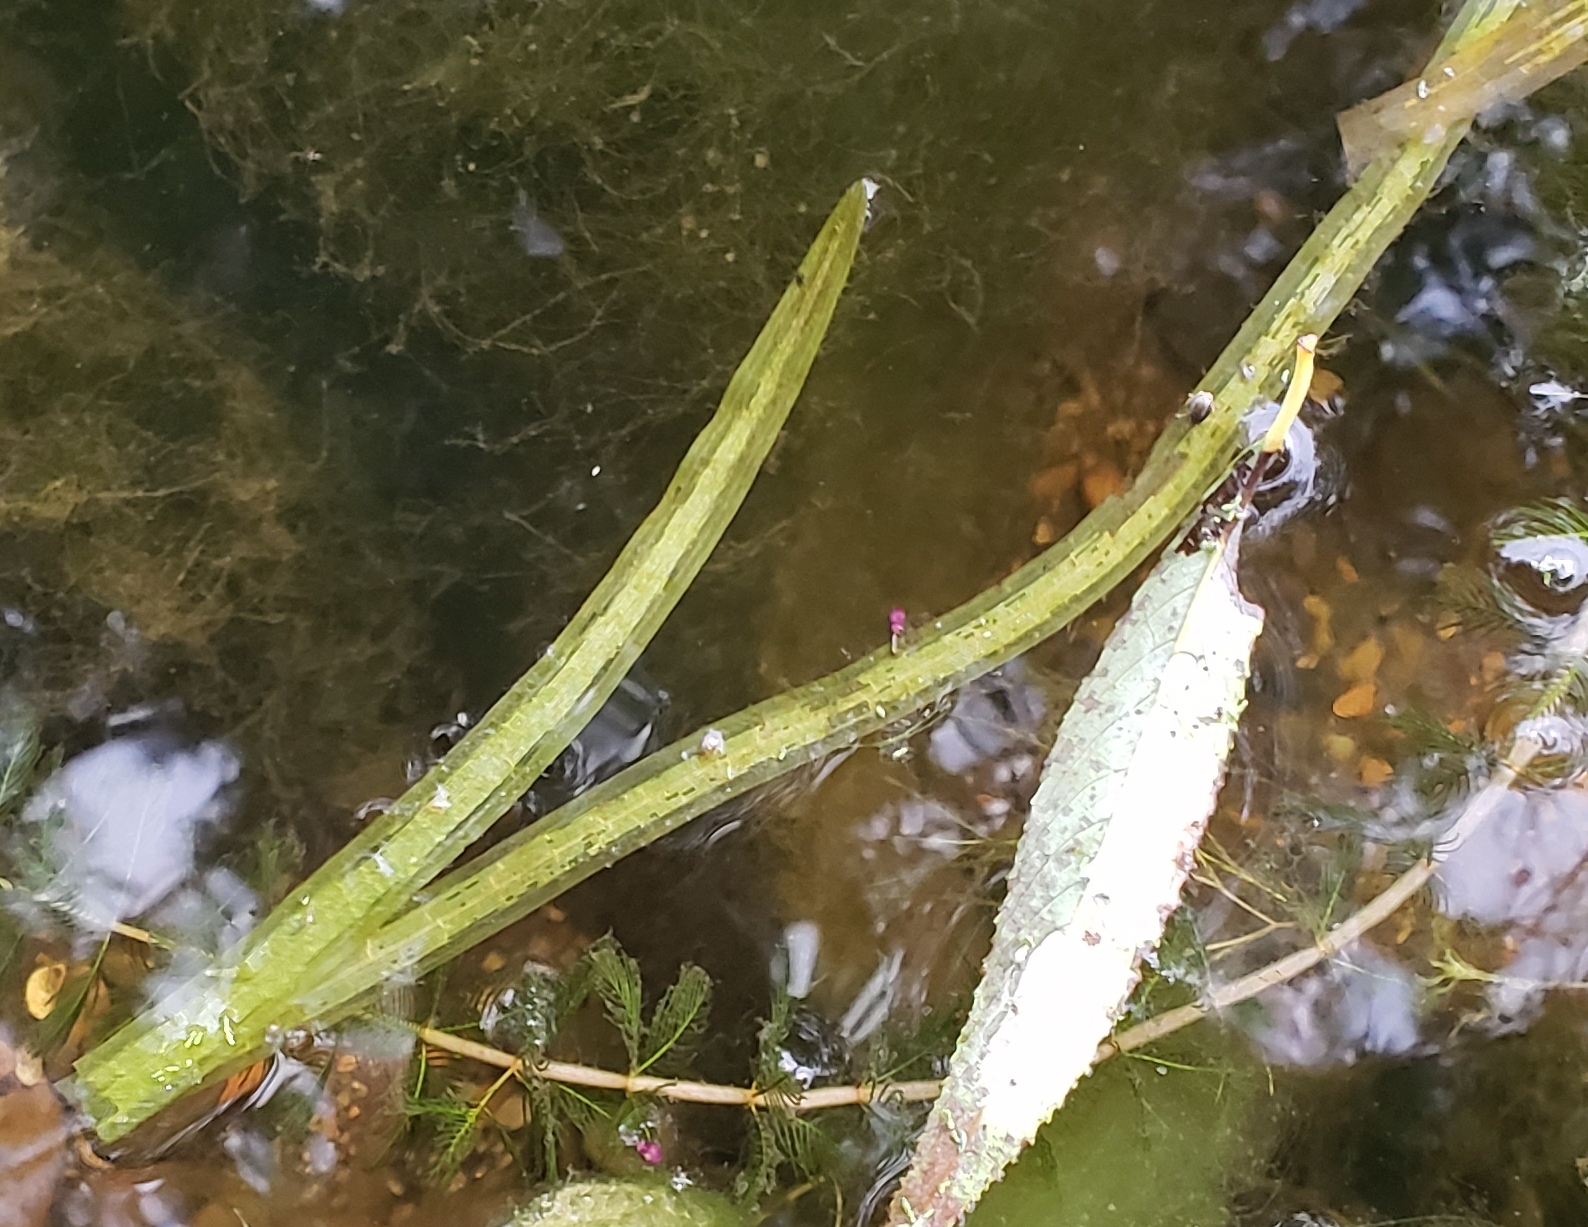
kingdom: Plantae
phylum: Tracheophyta
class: Liliopsida
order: Alismatales
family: Hydrocharitaceae
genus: Vallisneria
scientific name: Vallisneria americana
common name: American eelgrass
